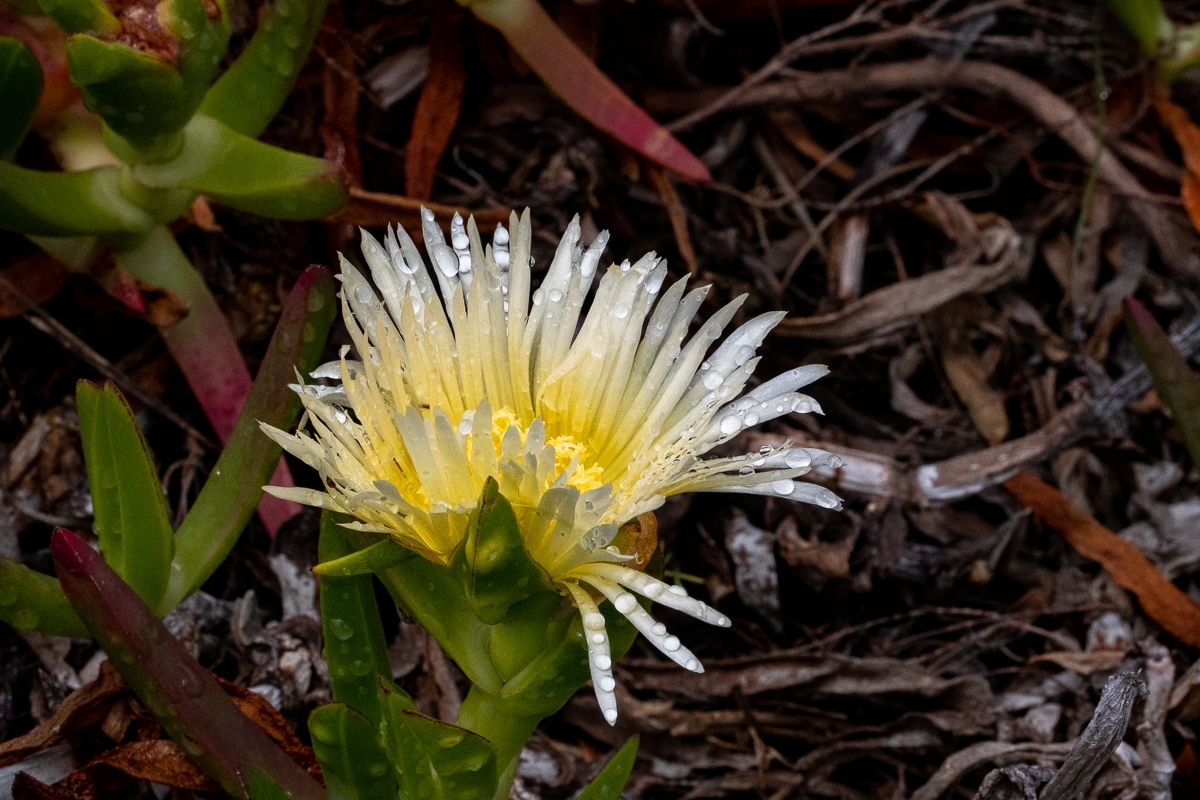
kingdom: Plantae
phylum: Tracheophyta
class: Magnoliopsida
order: Caryophyllales
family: Aizoaceae
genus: Carpobrotus
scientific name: Carpobrotus edulis
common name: Hottentot-fig
